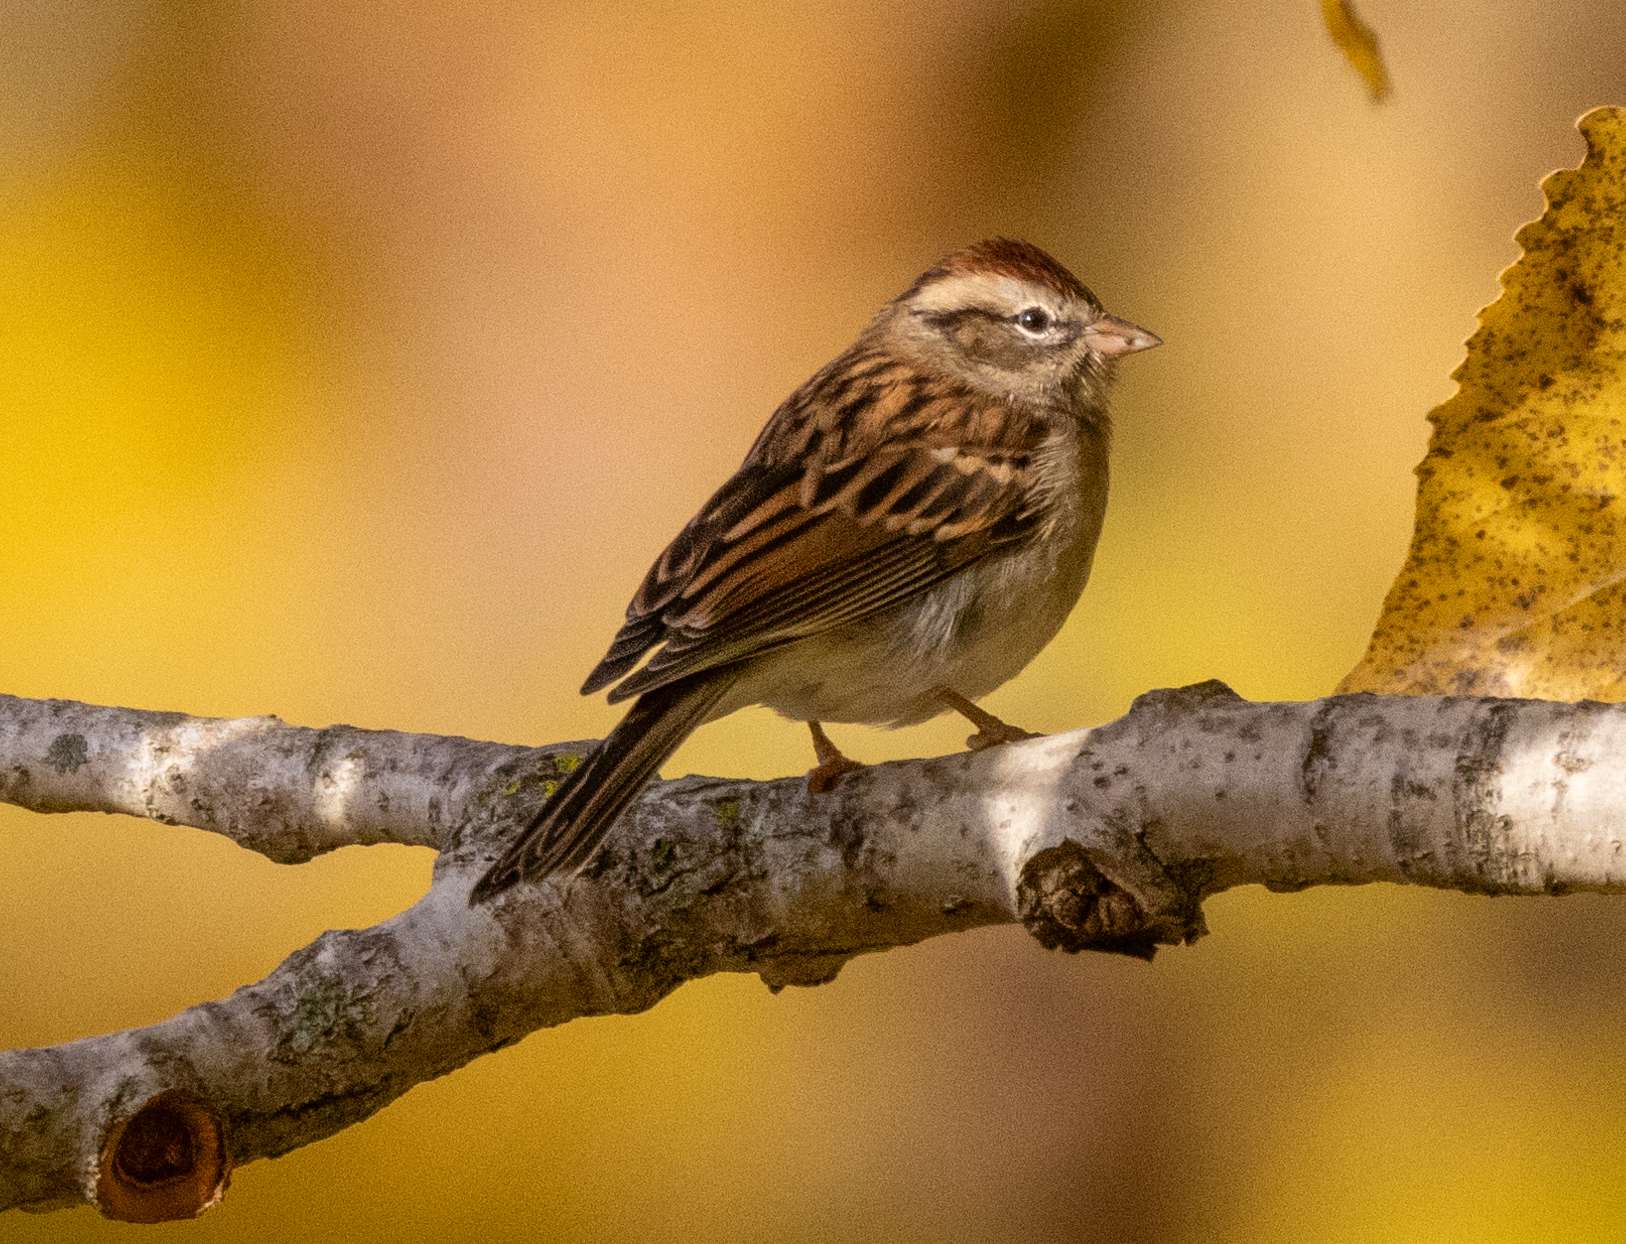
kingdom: Animalia
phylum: Chordata
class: Aves
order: Passeriformes
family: Passerellidae
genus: Spizella
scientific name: Spizella passerina
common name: Chipping sparrow
